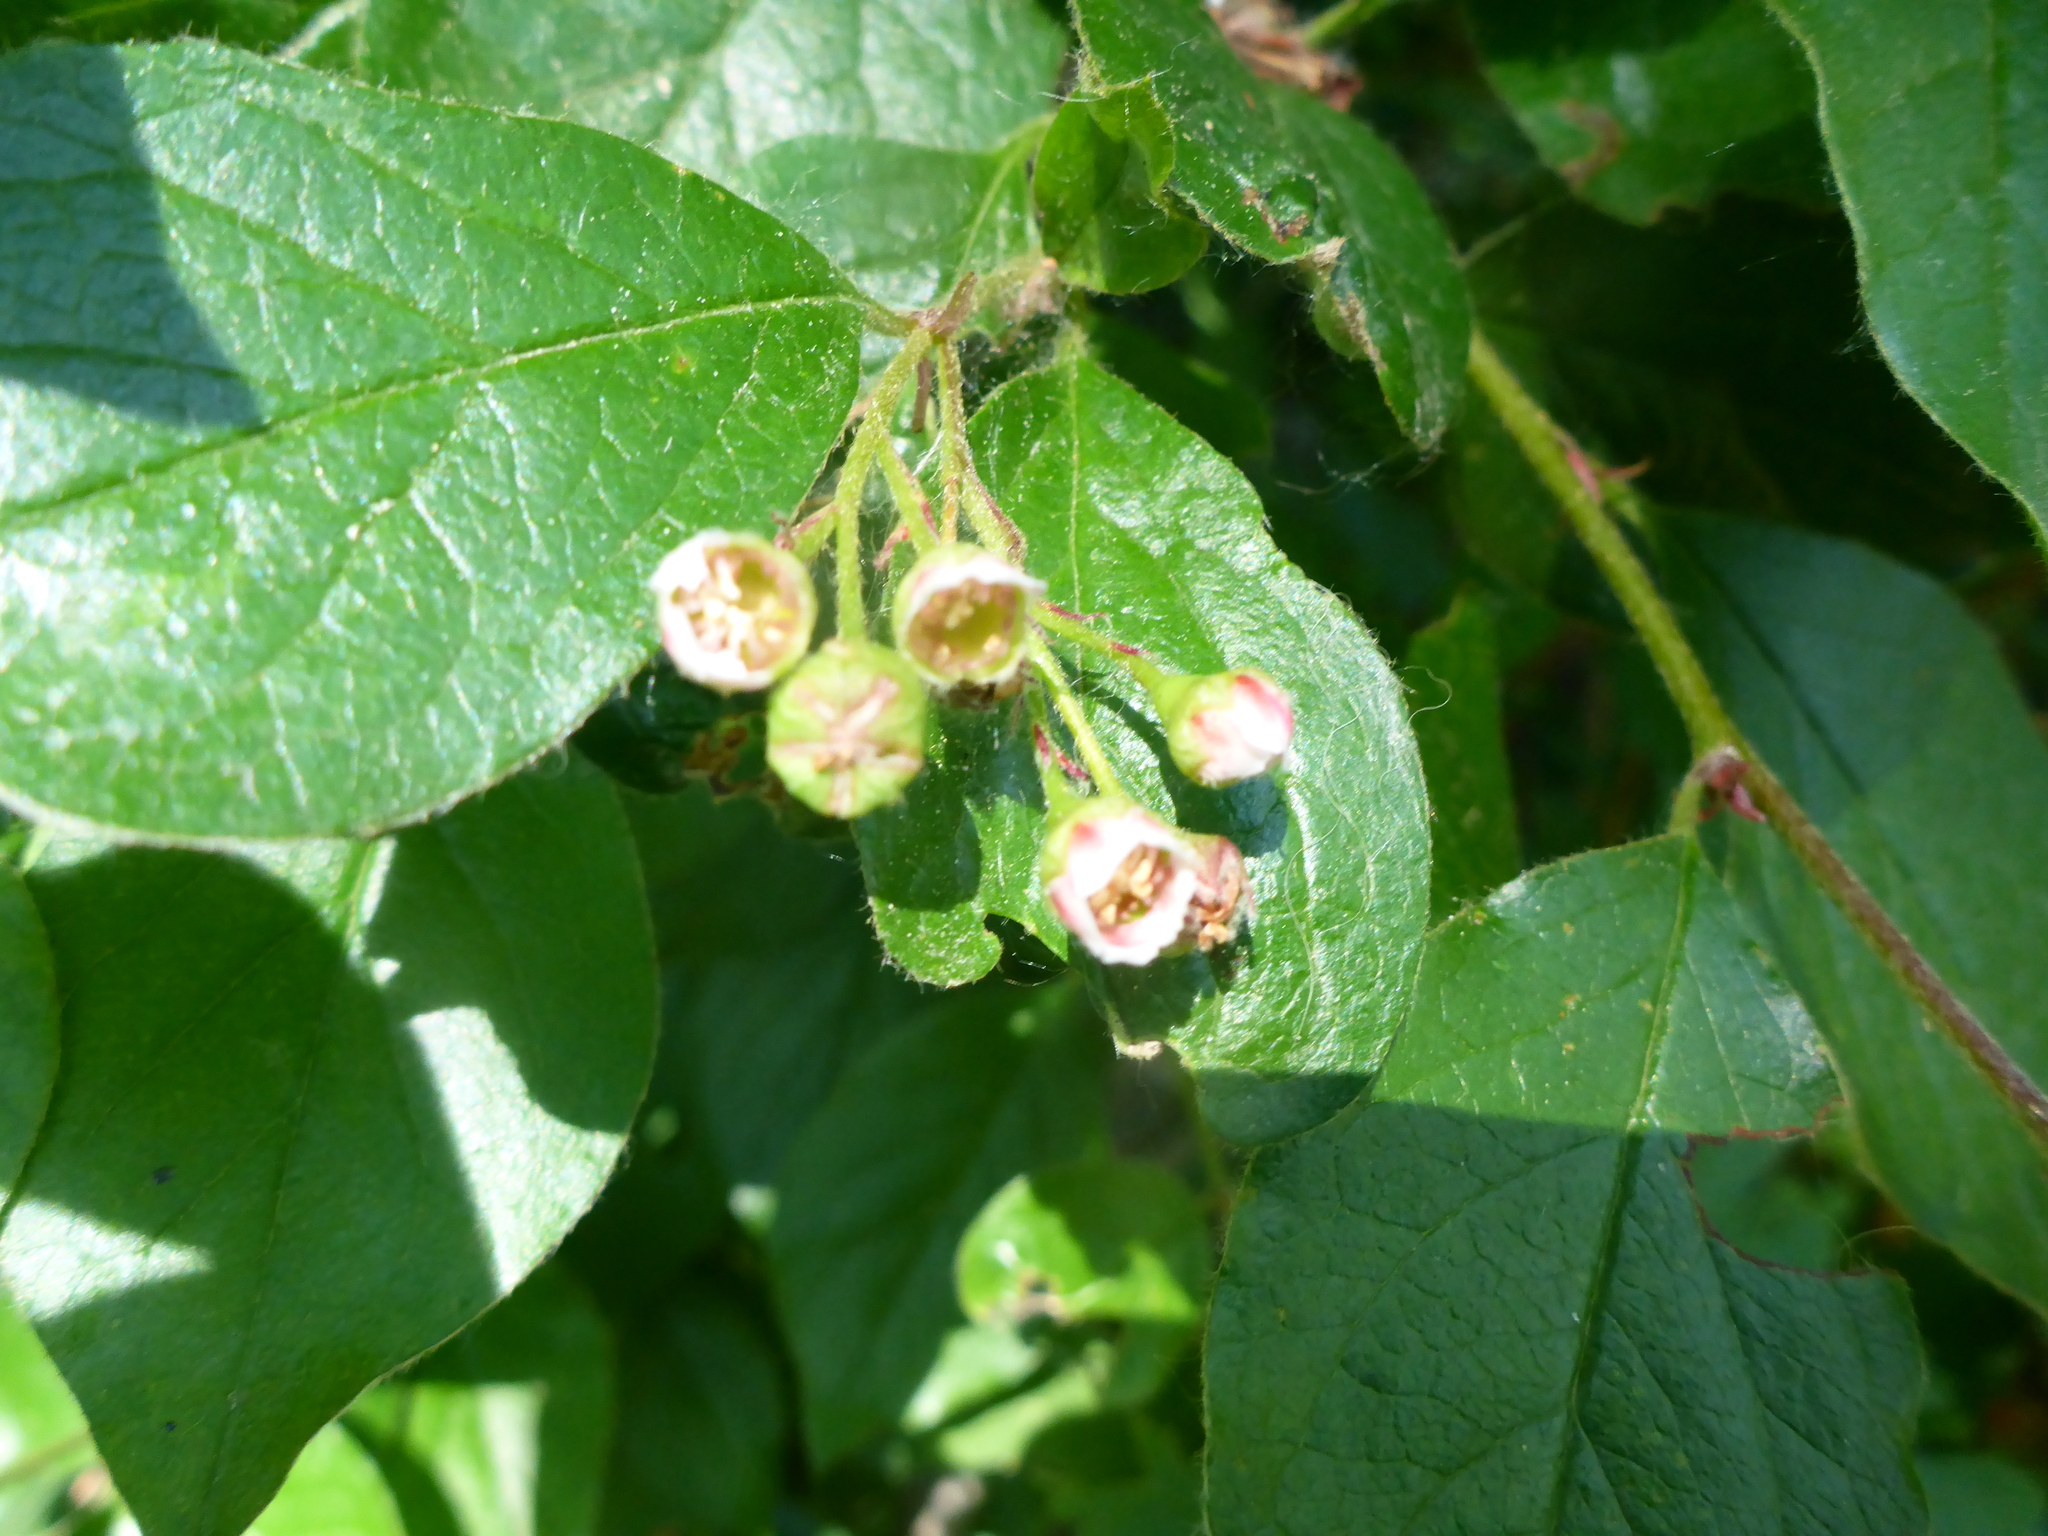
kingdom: Plantae
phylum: Tracheophyta
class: Magnoliopsida
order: Rosales
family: Rosaceae
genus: Cotoneaster
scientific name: Cotoneaster acutifolius
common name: Peking cotoneaster
